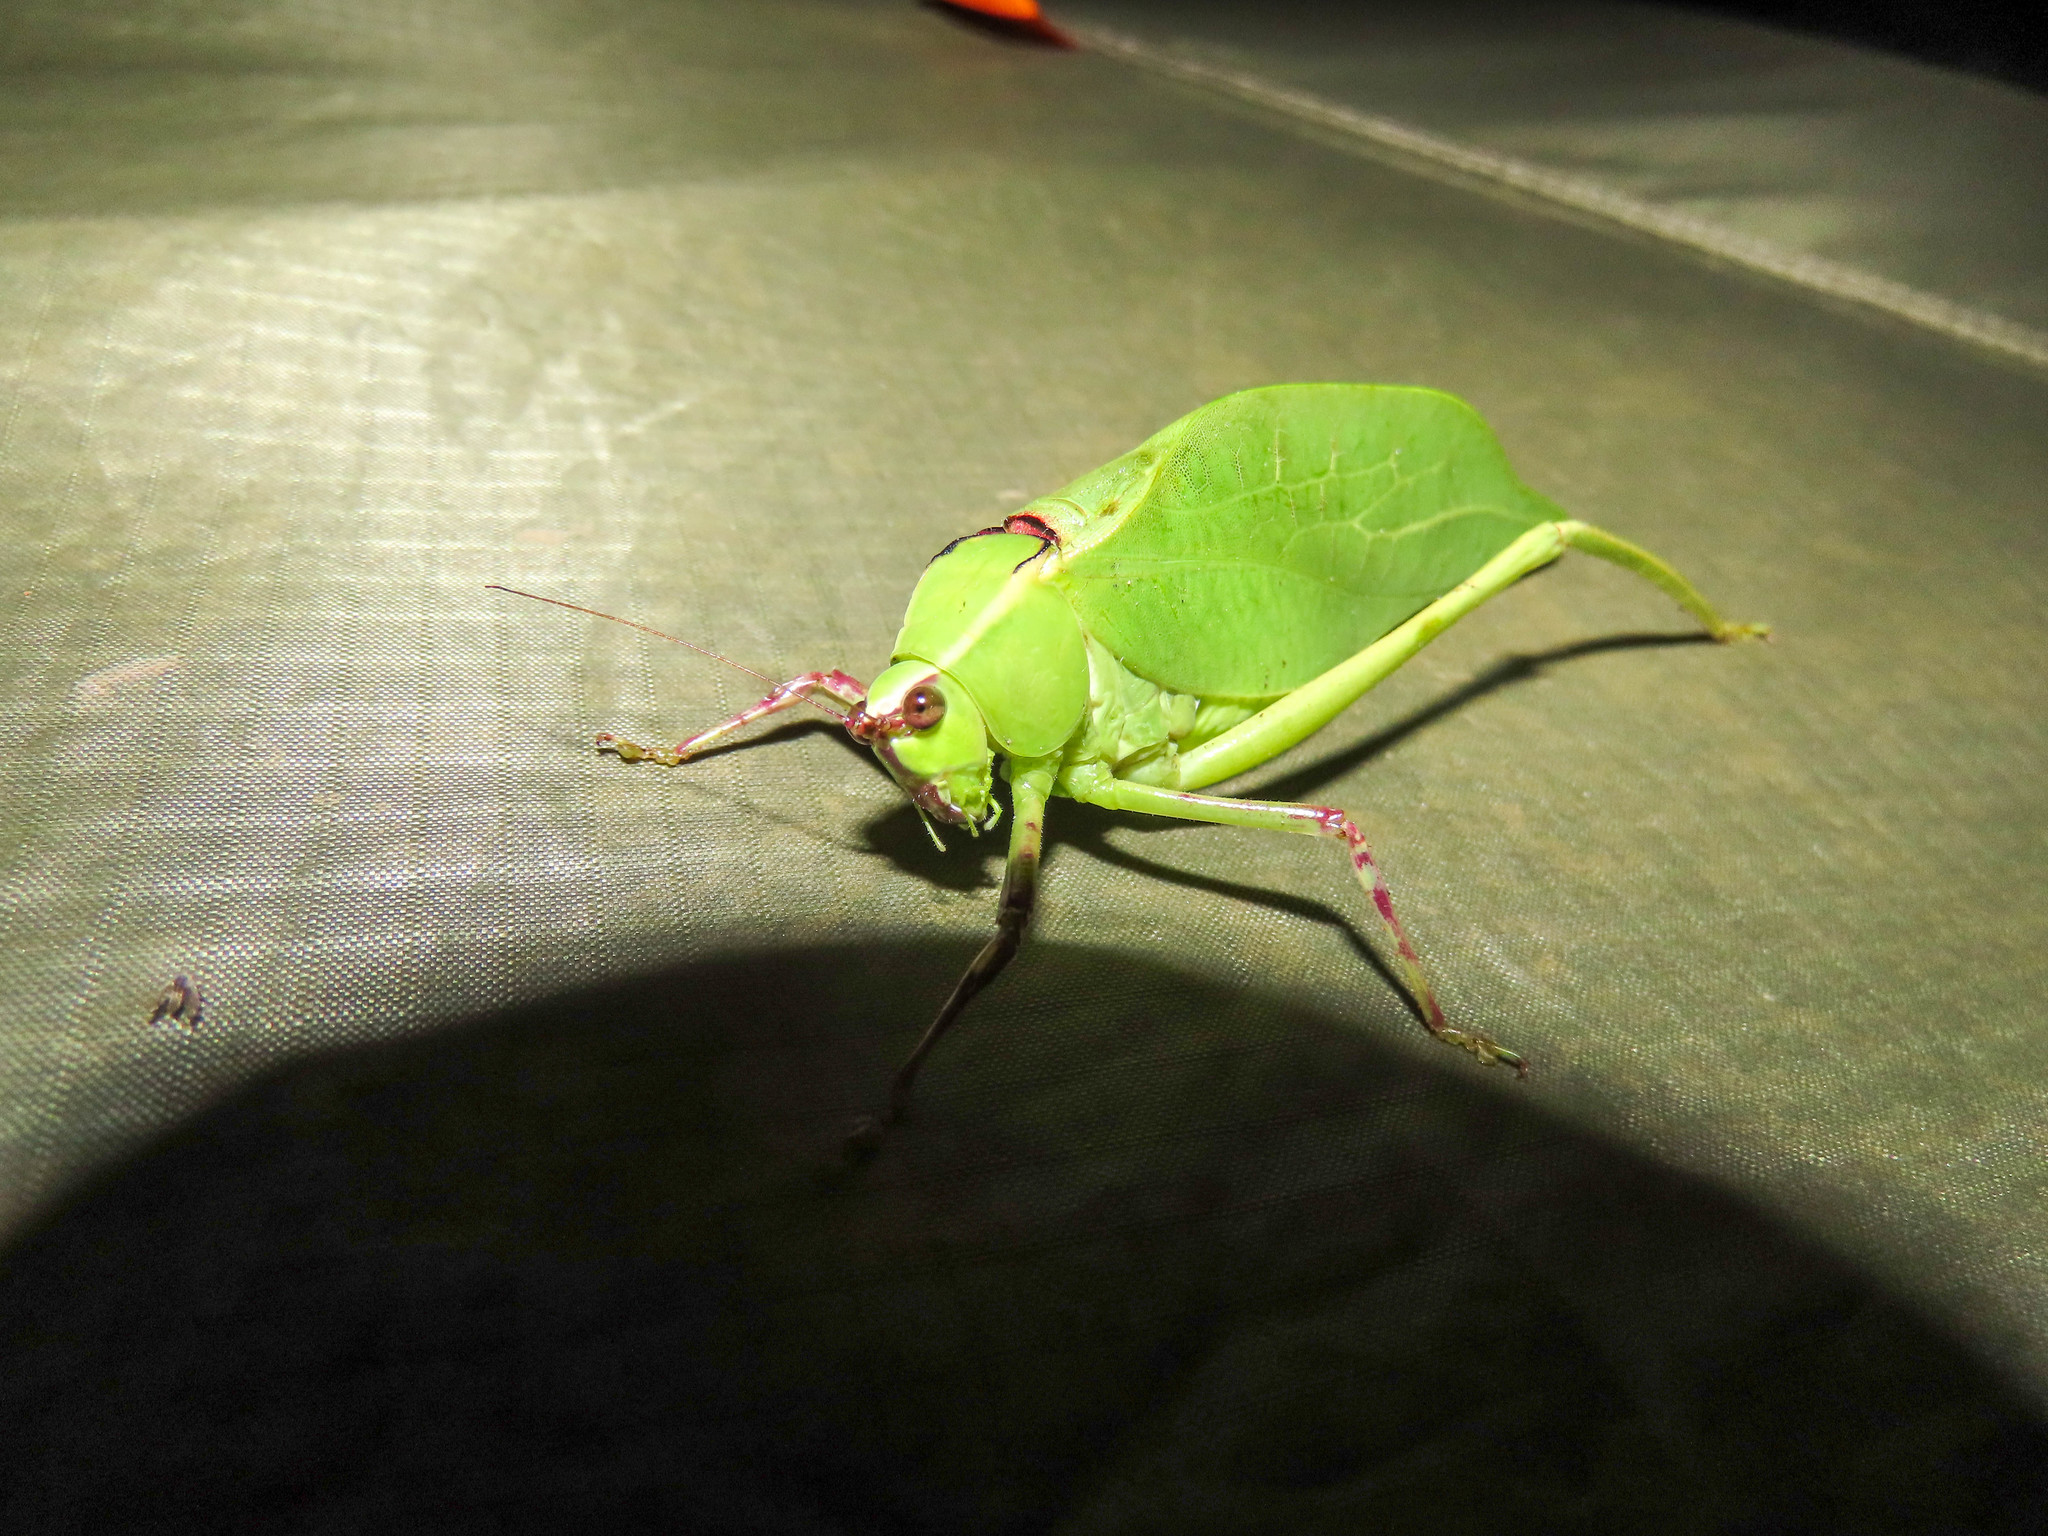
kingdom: Animalia
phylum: Arthropoda
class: Insecta
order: Orthoptera
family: Tettigoniidae
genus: Stilpnochlora
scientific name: Stilpnochlora couloniana
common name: Giant katydid
